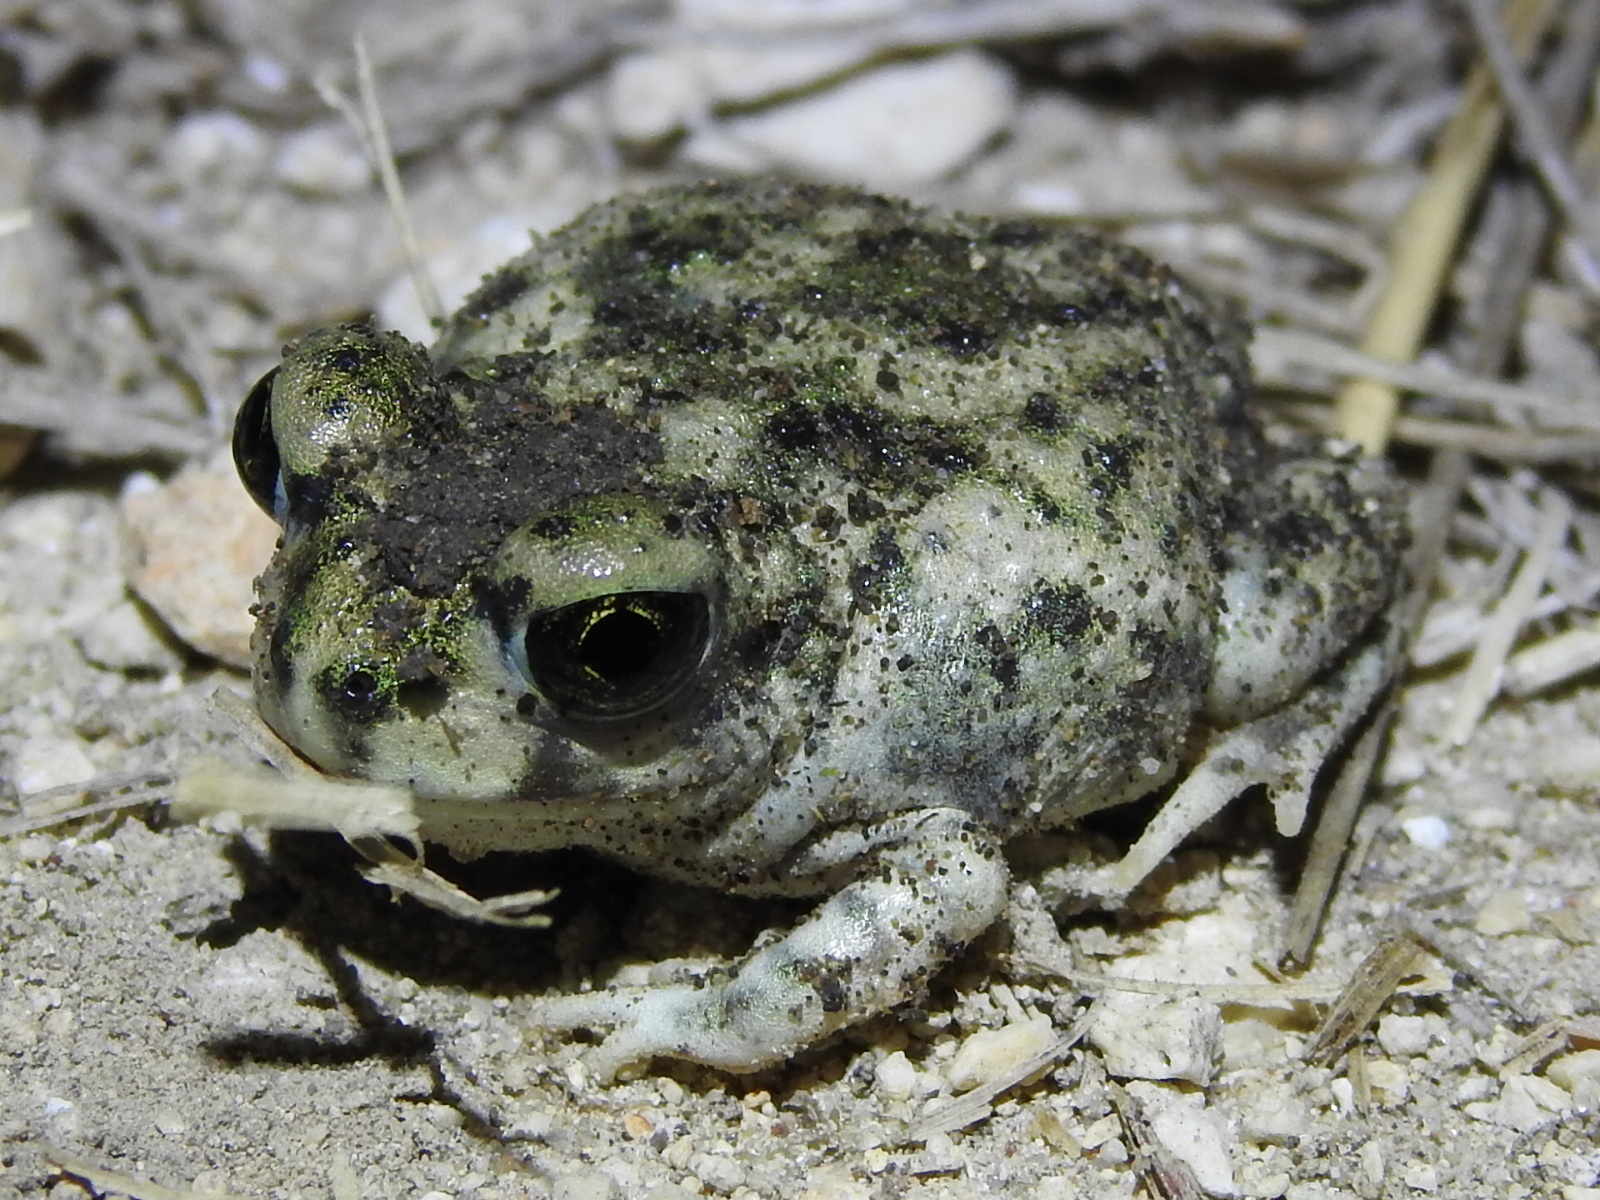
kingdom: Animalia
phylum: Chordata
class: Amphibia
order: Anura
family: Scaphiopodidae
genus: Scaphiopus
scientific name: Scaphiopus couchii
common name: Couch's spadefoot toad
